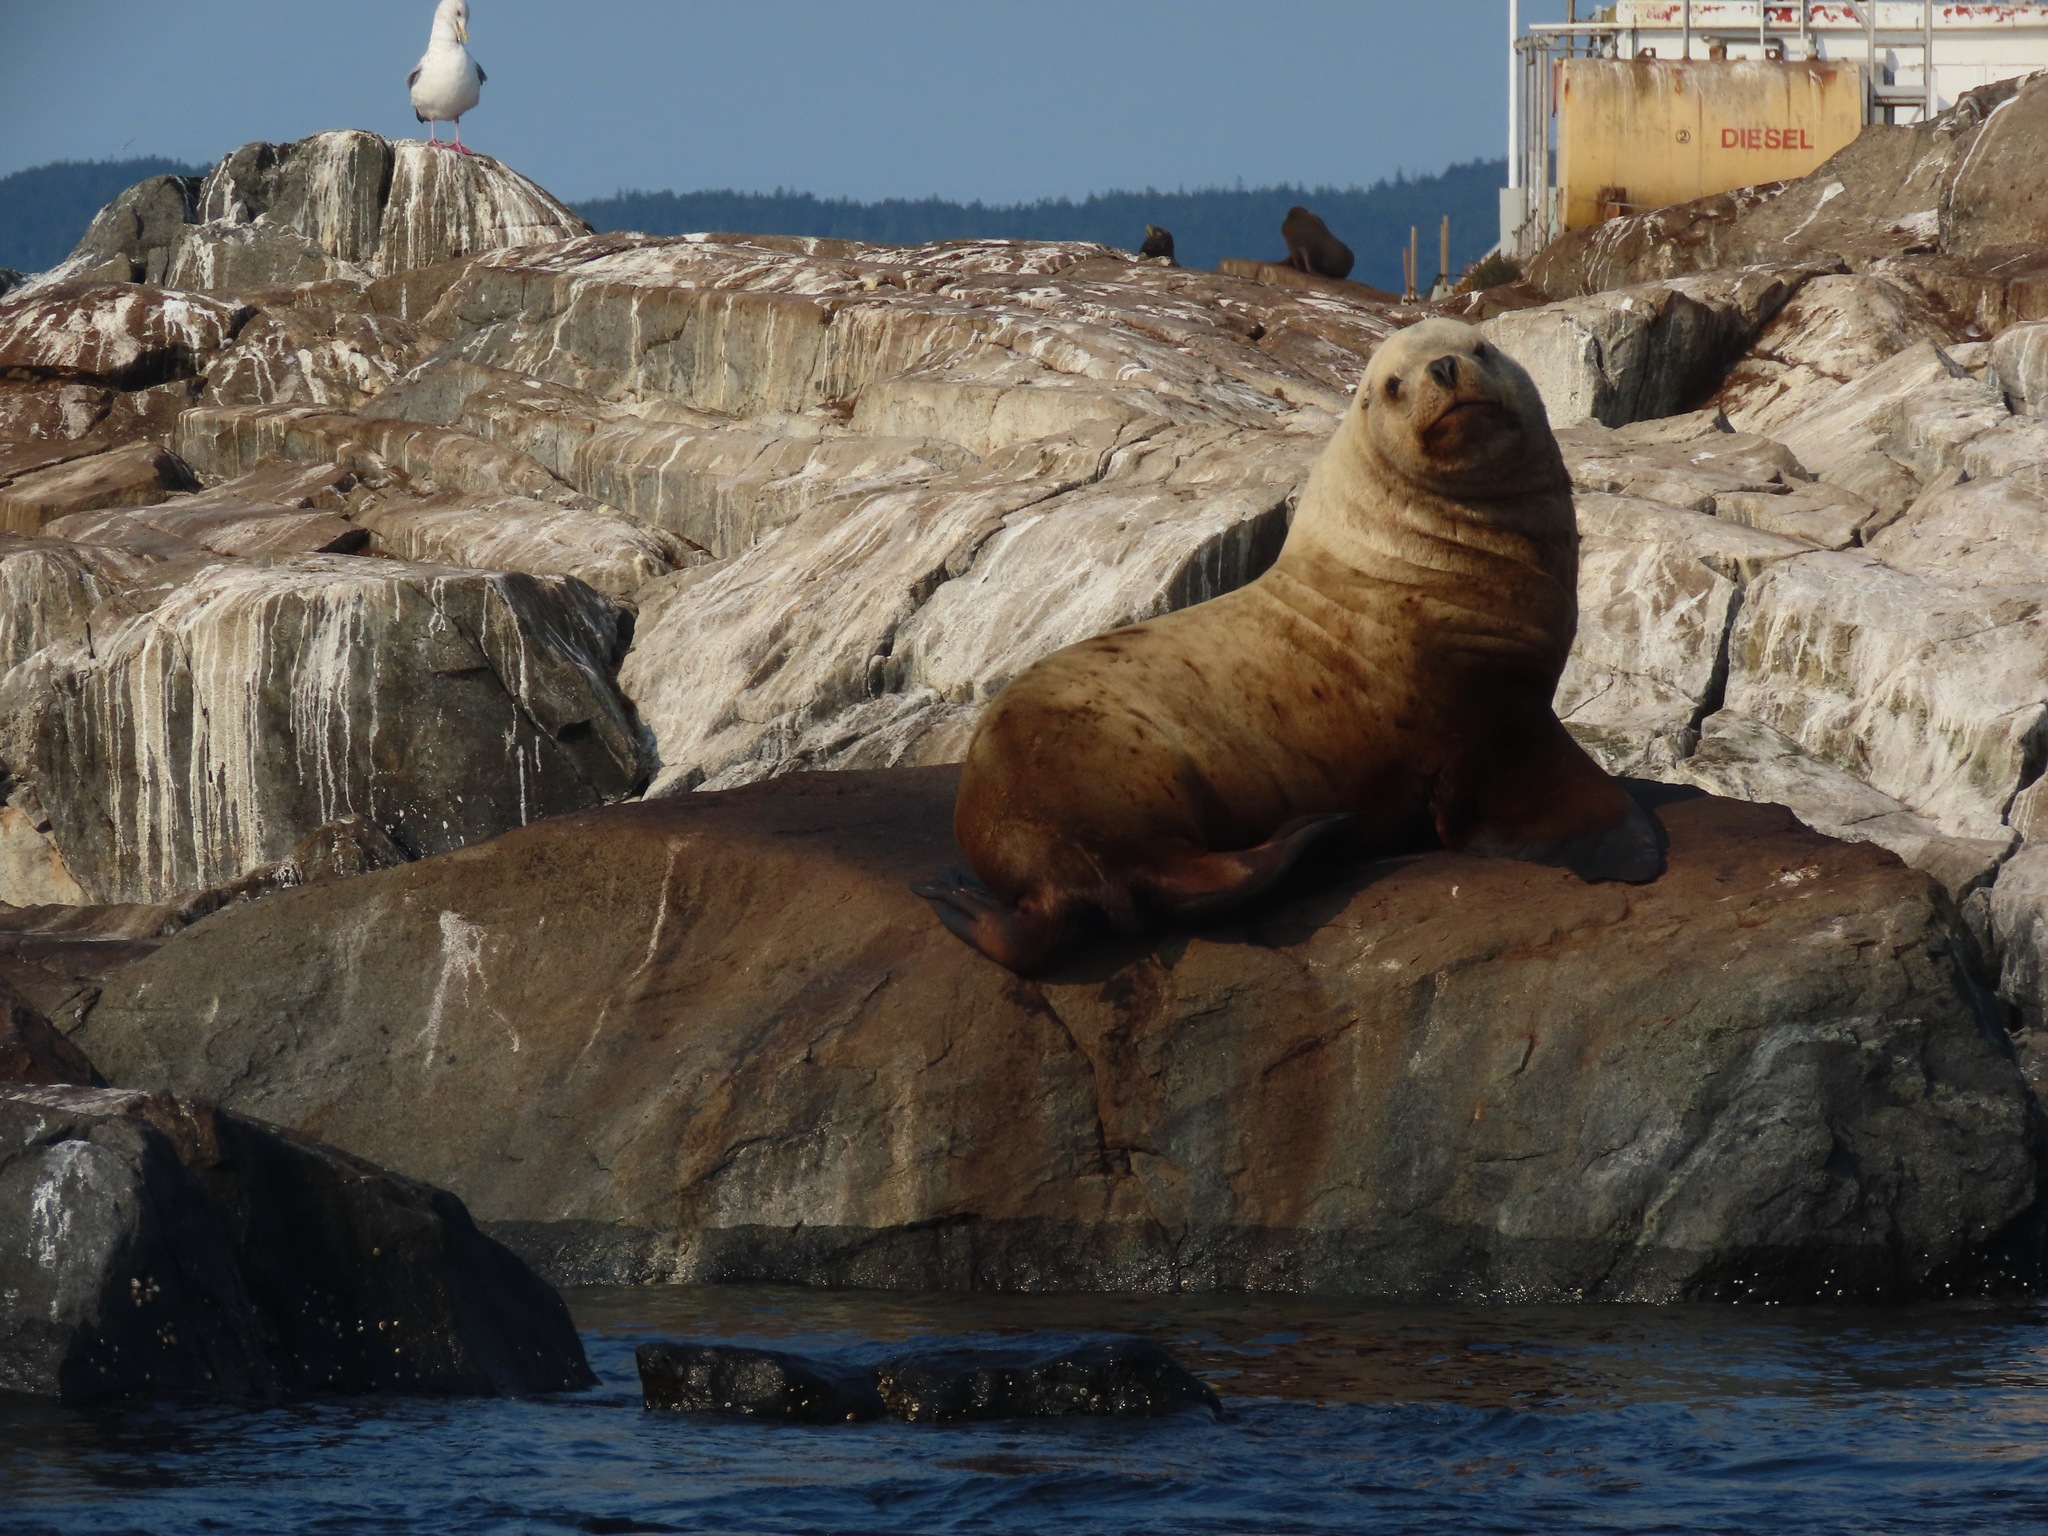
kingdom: Animalia
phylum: Chordata
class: Mammalia
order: Carnivora
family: Otariidae
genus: Eumetopias
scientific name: Eumetopias jubatus
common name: Steller sea lion
